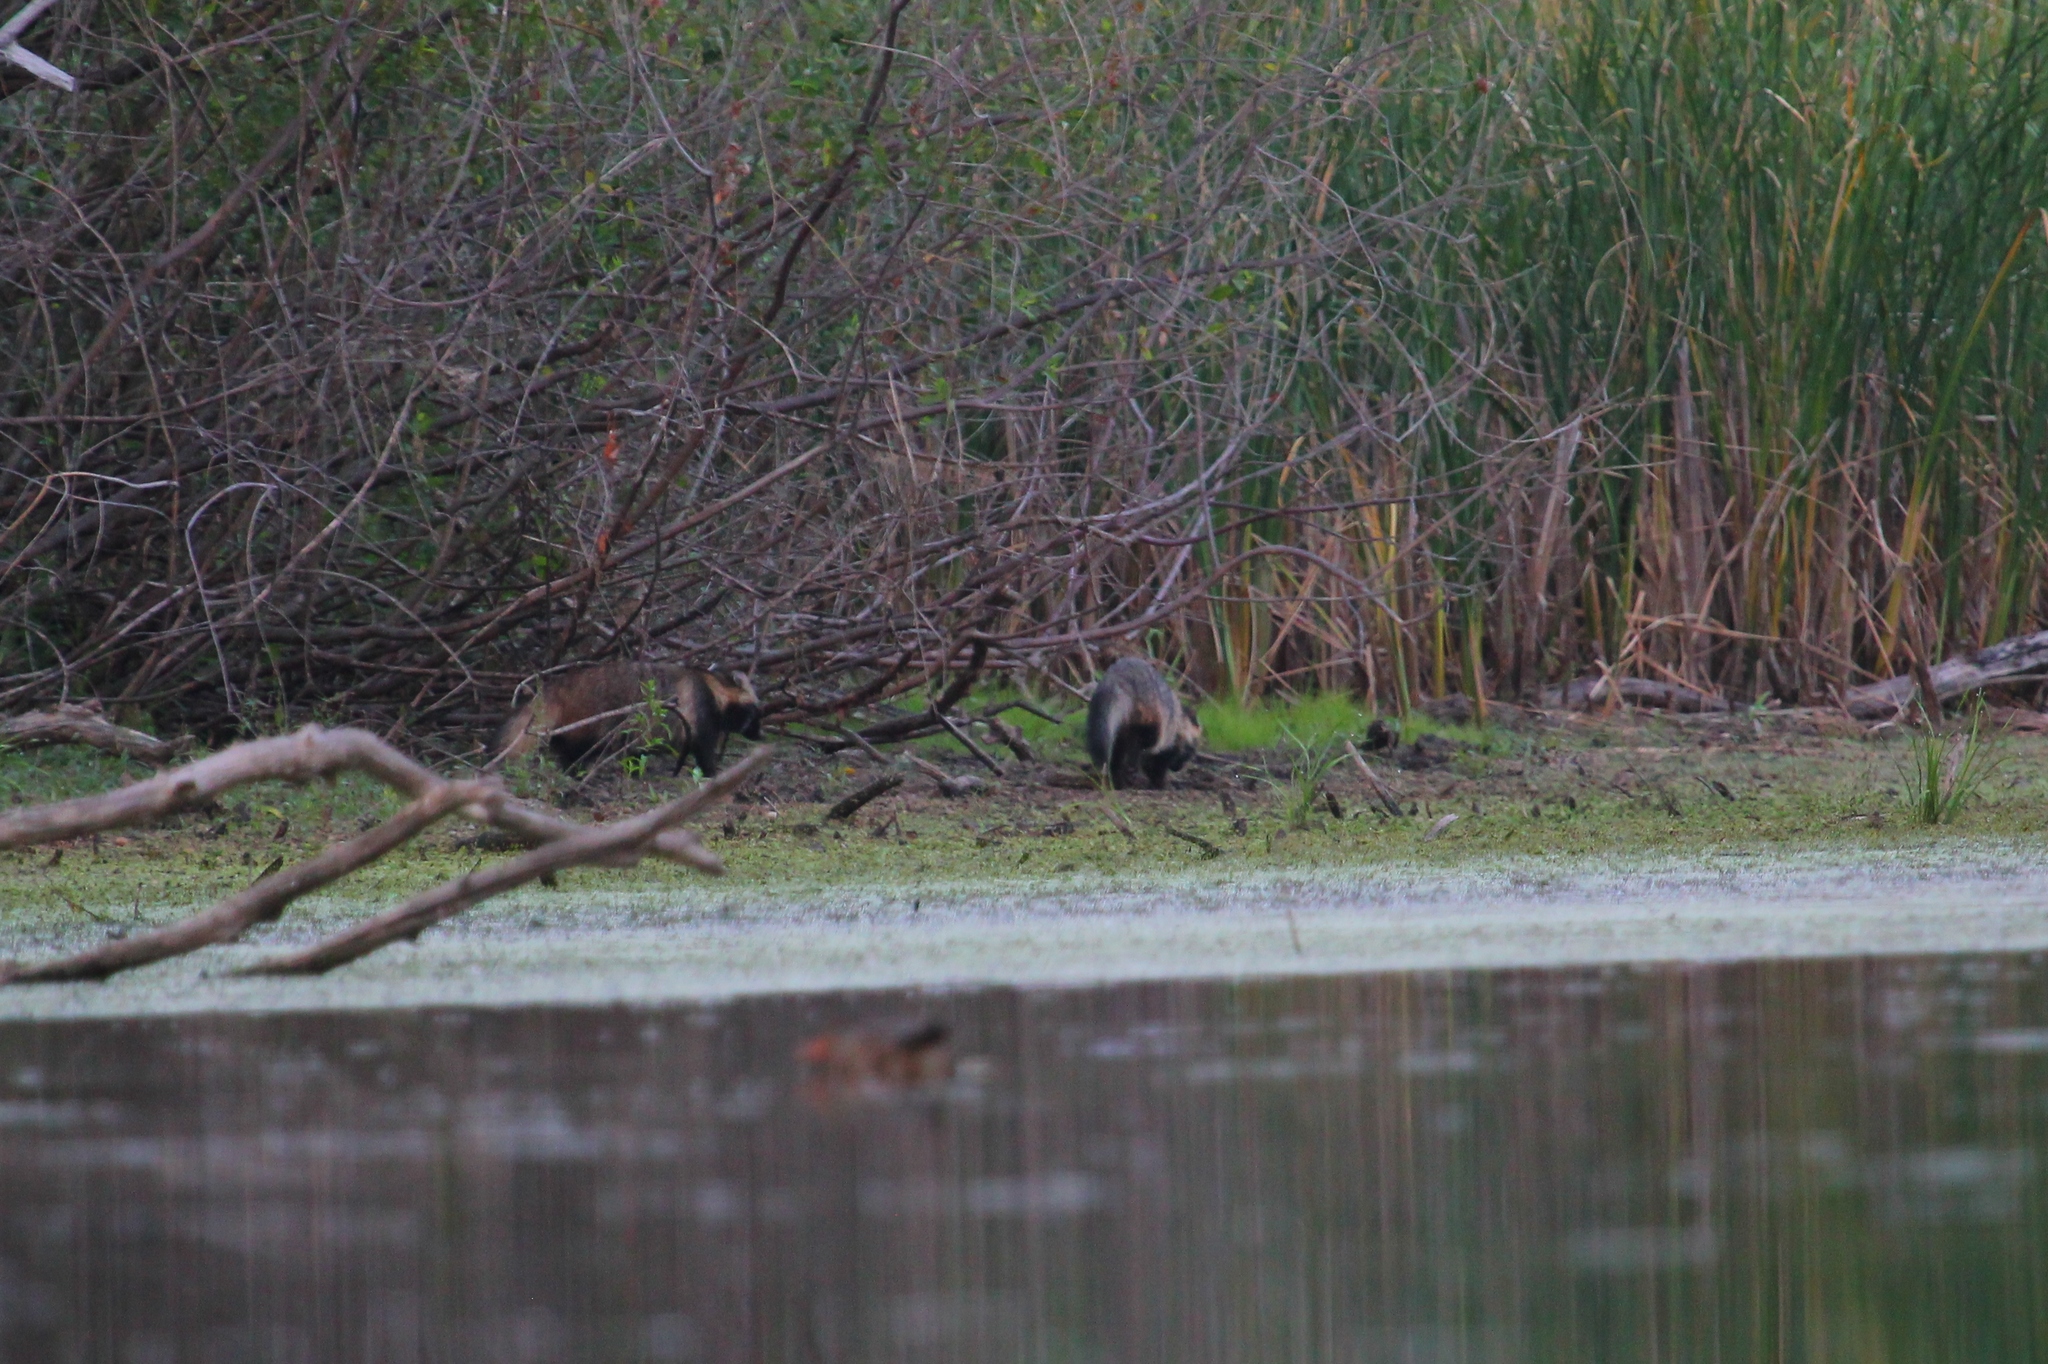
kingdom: Animalia
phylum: Chordata
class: Mammalia
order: Carnivora
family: Canidae
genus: Nyctereutes
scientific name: Nyctereutes procyonoides
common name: Raccoon dog
